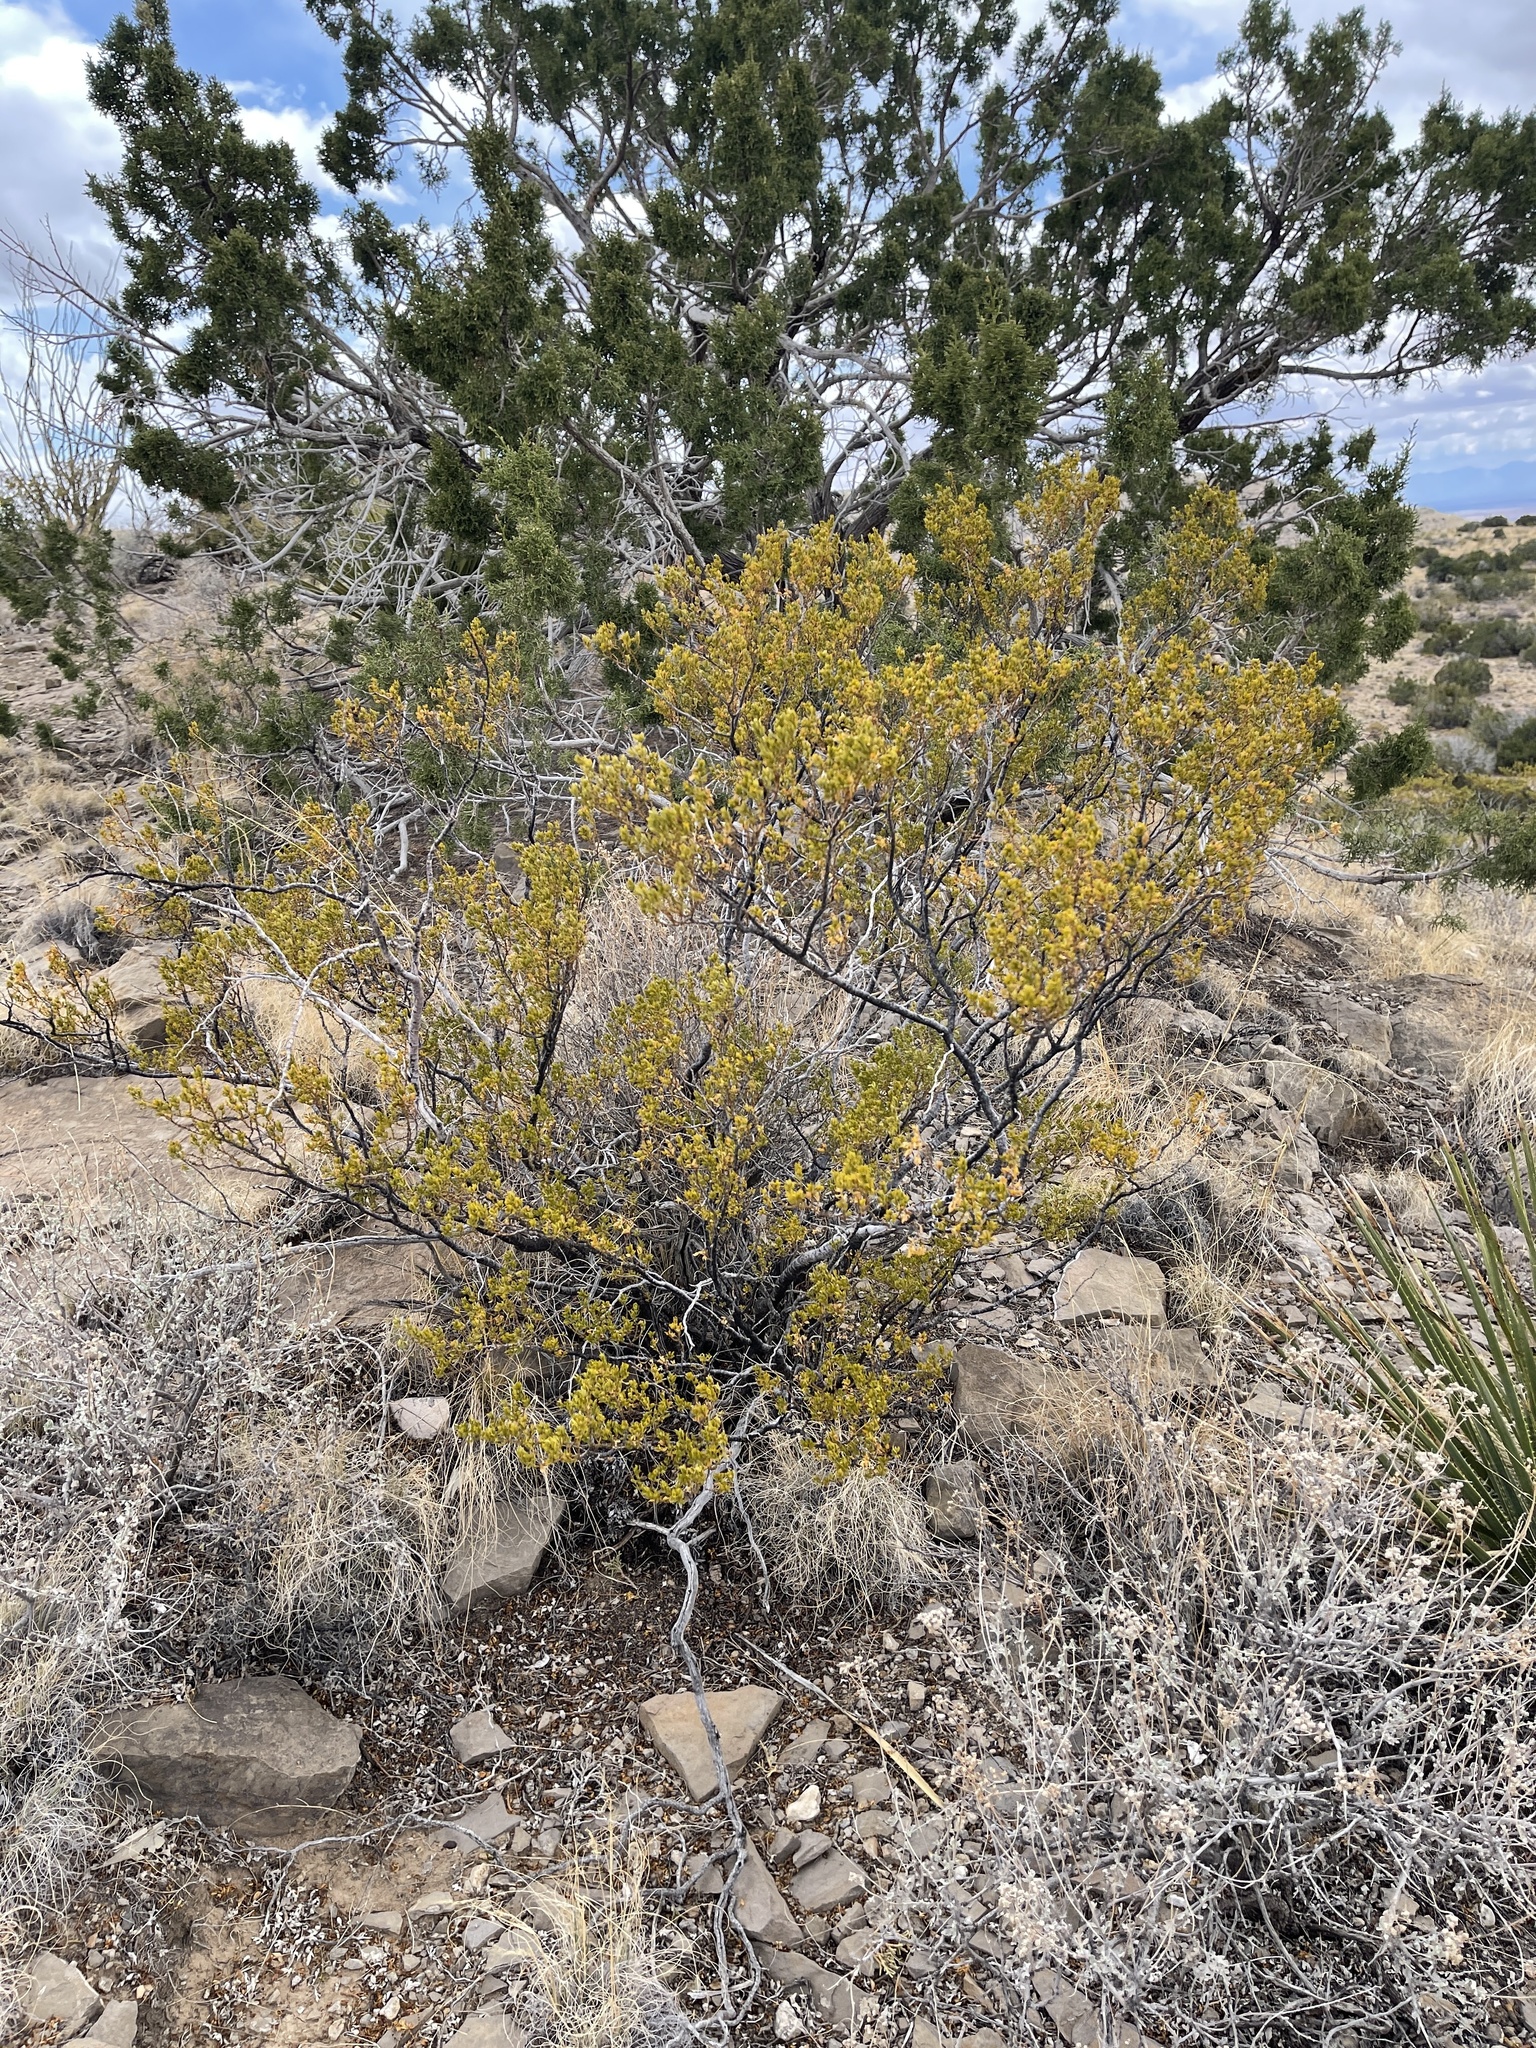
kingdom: Plantae
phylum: Tracheophyta
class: Magnoliopsida
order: Zygophyllales
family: Zygophyllaceae
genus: Larrea
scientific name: Larrea tridentata
